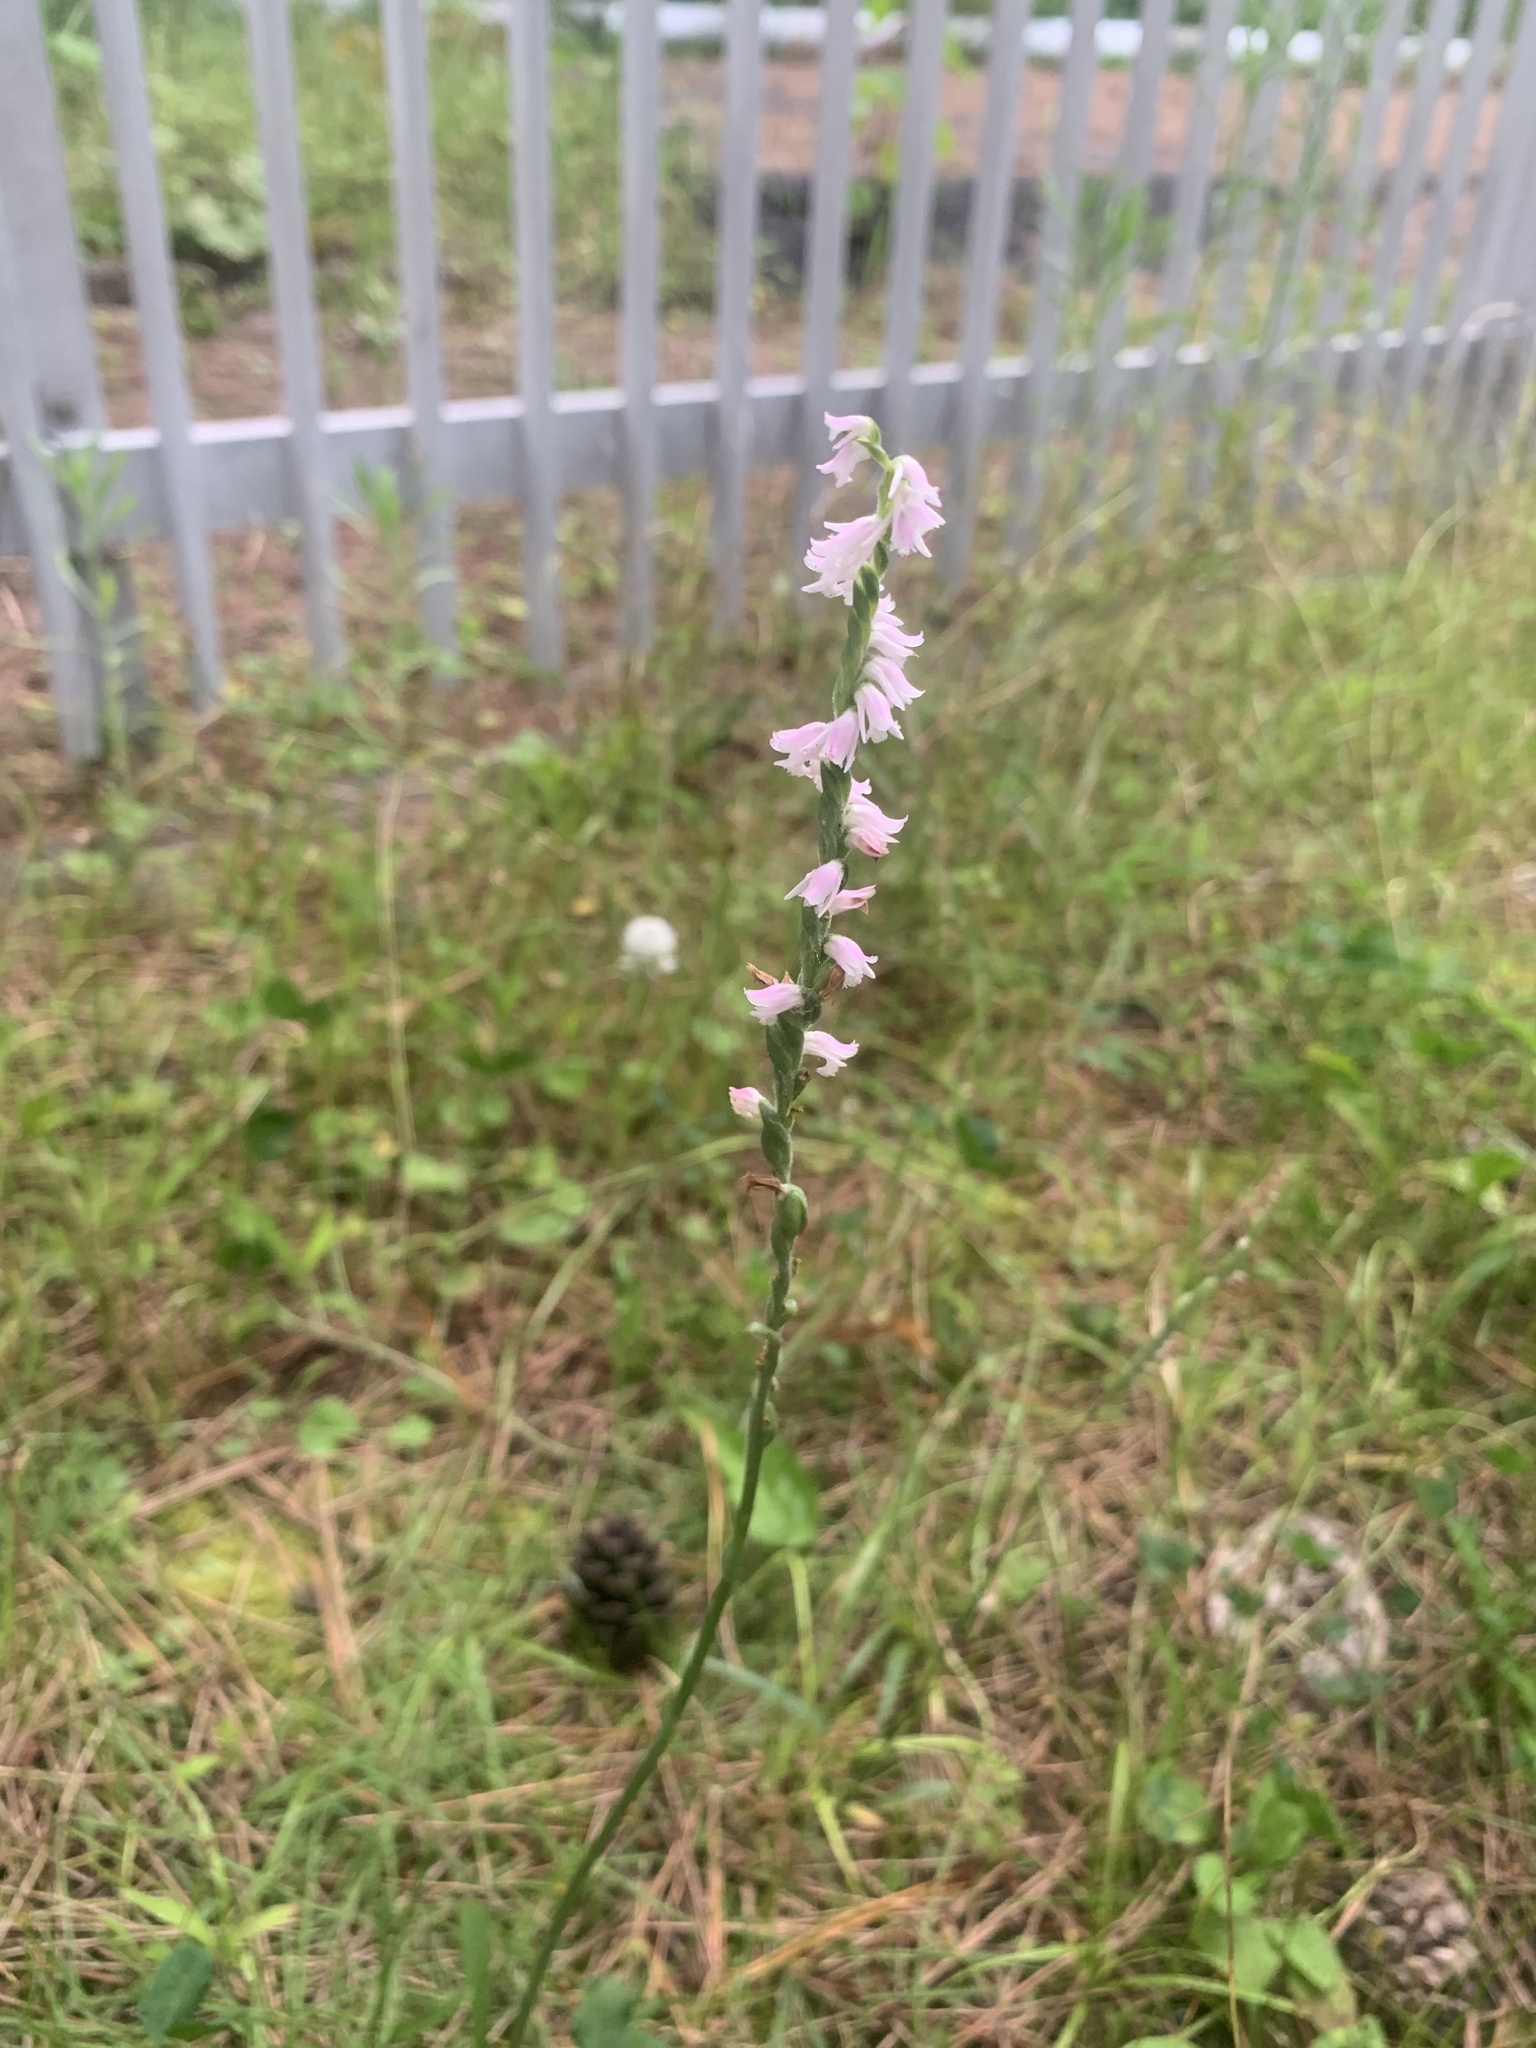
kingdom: Plantae
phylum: Tracheophyta
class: Liliopsida
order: Asparagales
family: Orchidaceae
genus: Spiranthes
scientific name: Spiranthes australis
